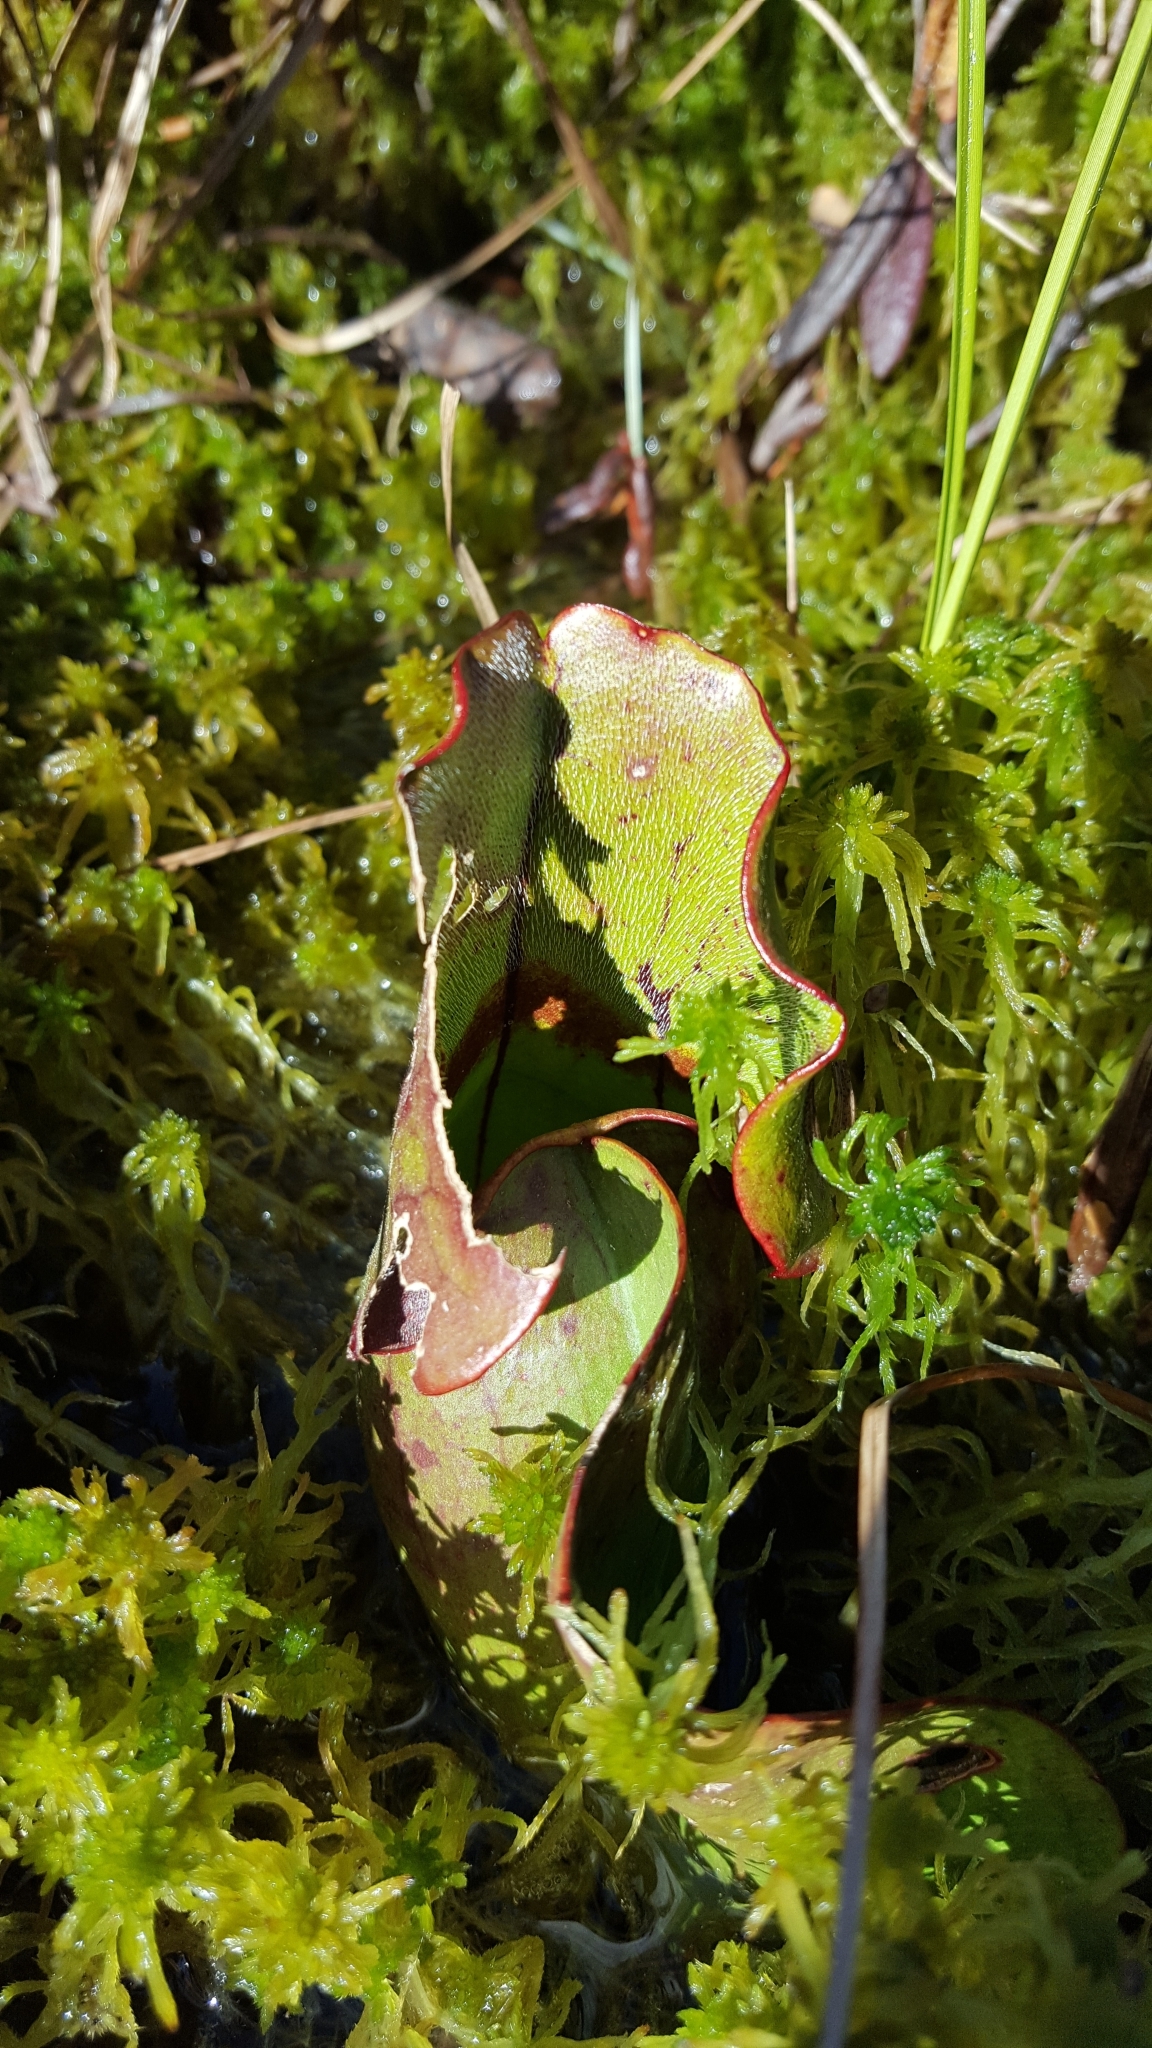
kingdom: Plantae
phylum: Tracheophyta
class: Magnoliopsida
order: Ericales
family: Sarraceniaceae
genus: Sarracenia
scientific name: Sarracenia purpurea
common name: Pitcherplant
